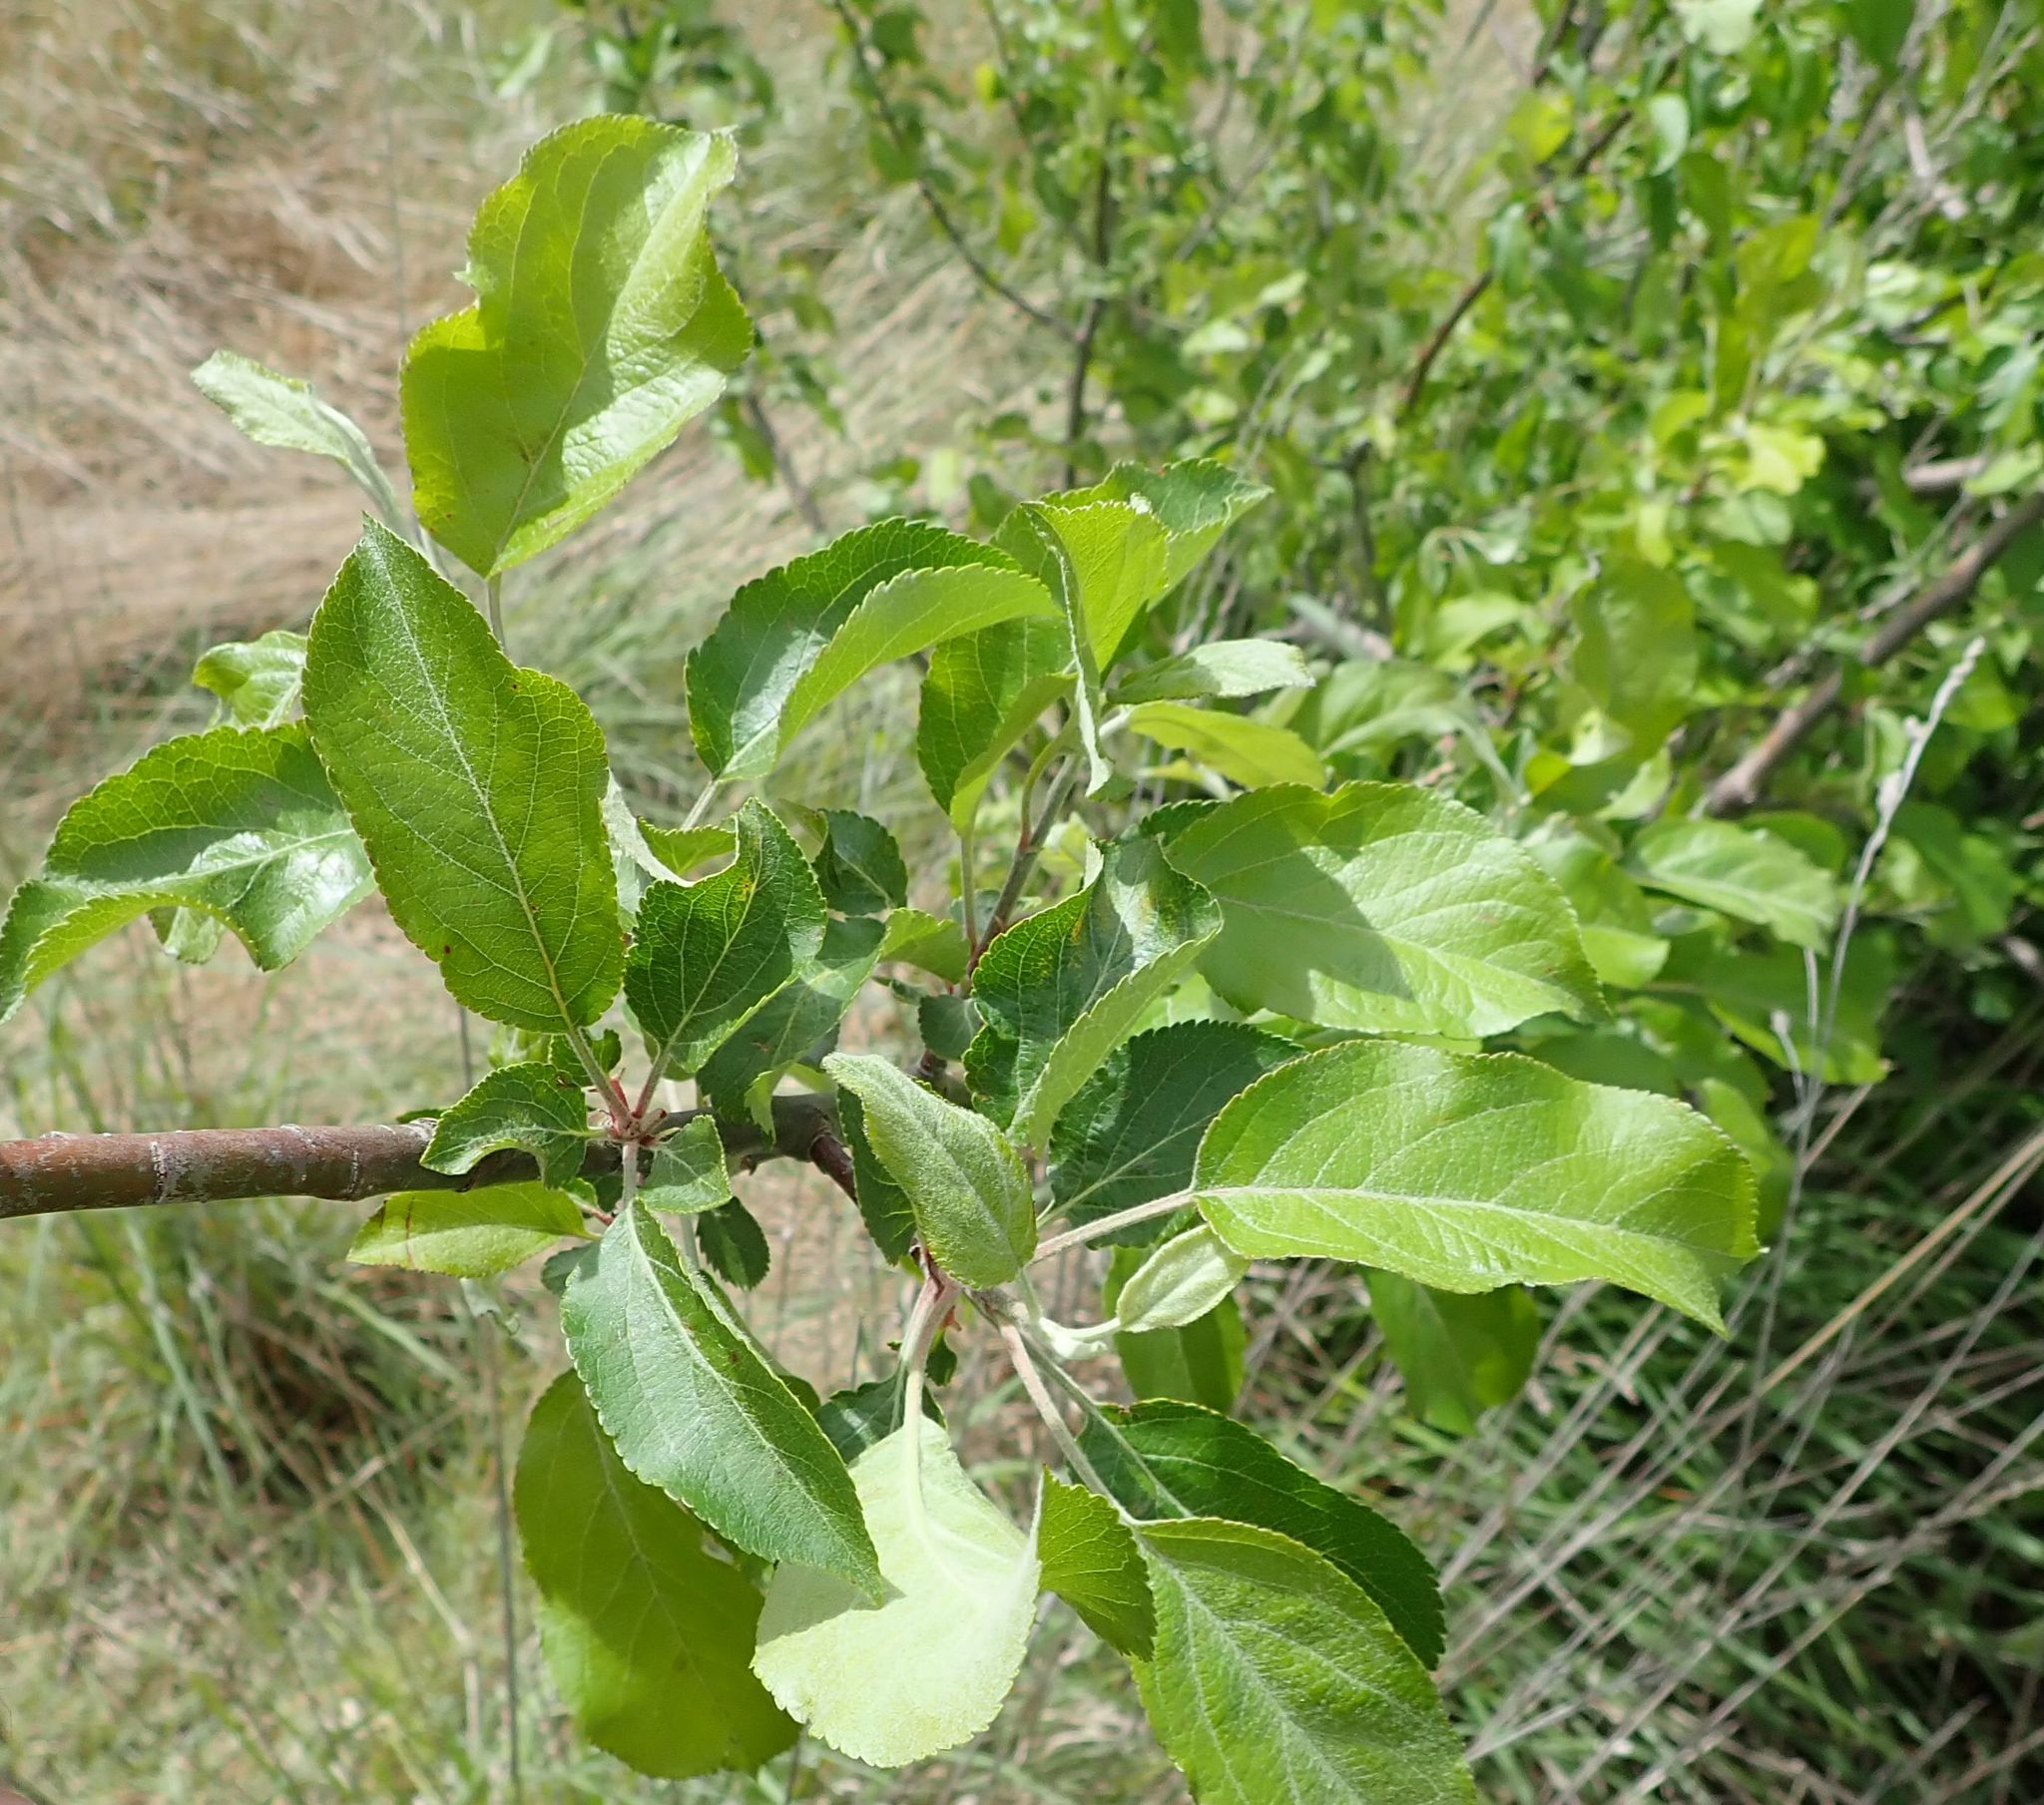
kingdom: Plantae
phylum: Tracheophyta
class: Magnoliopsida
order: Rosales
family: Rosaceae
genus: Malus
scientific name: Malus domestica
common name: Apple
